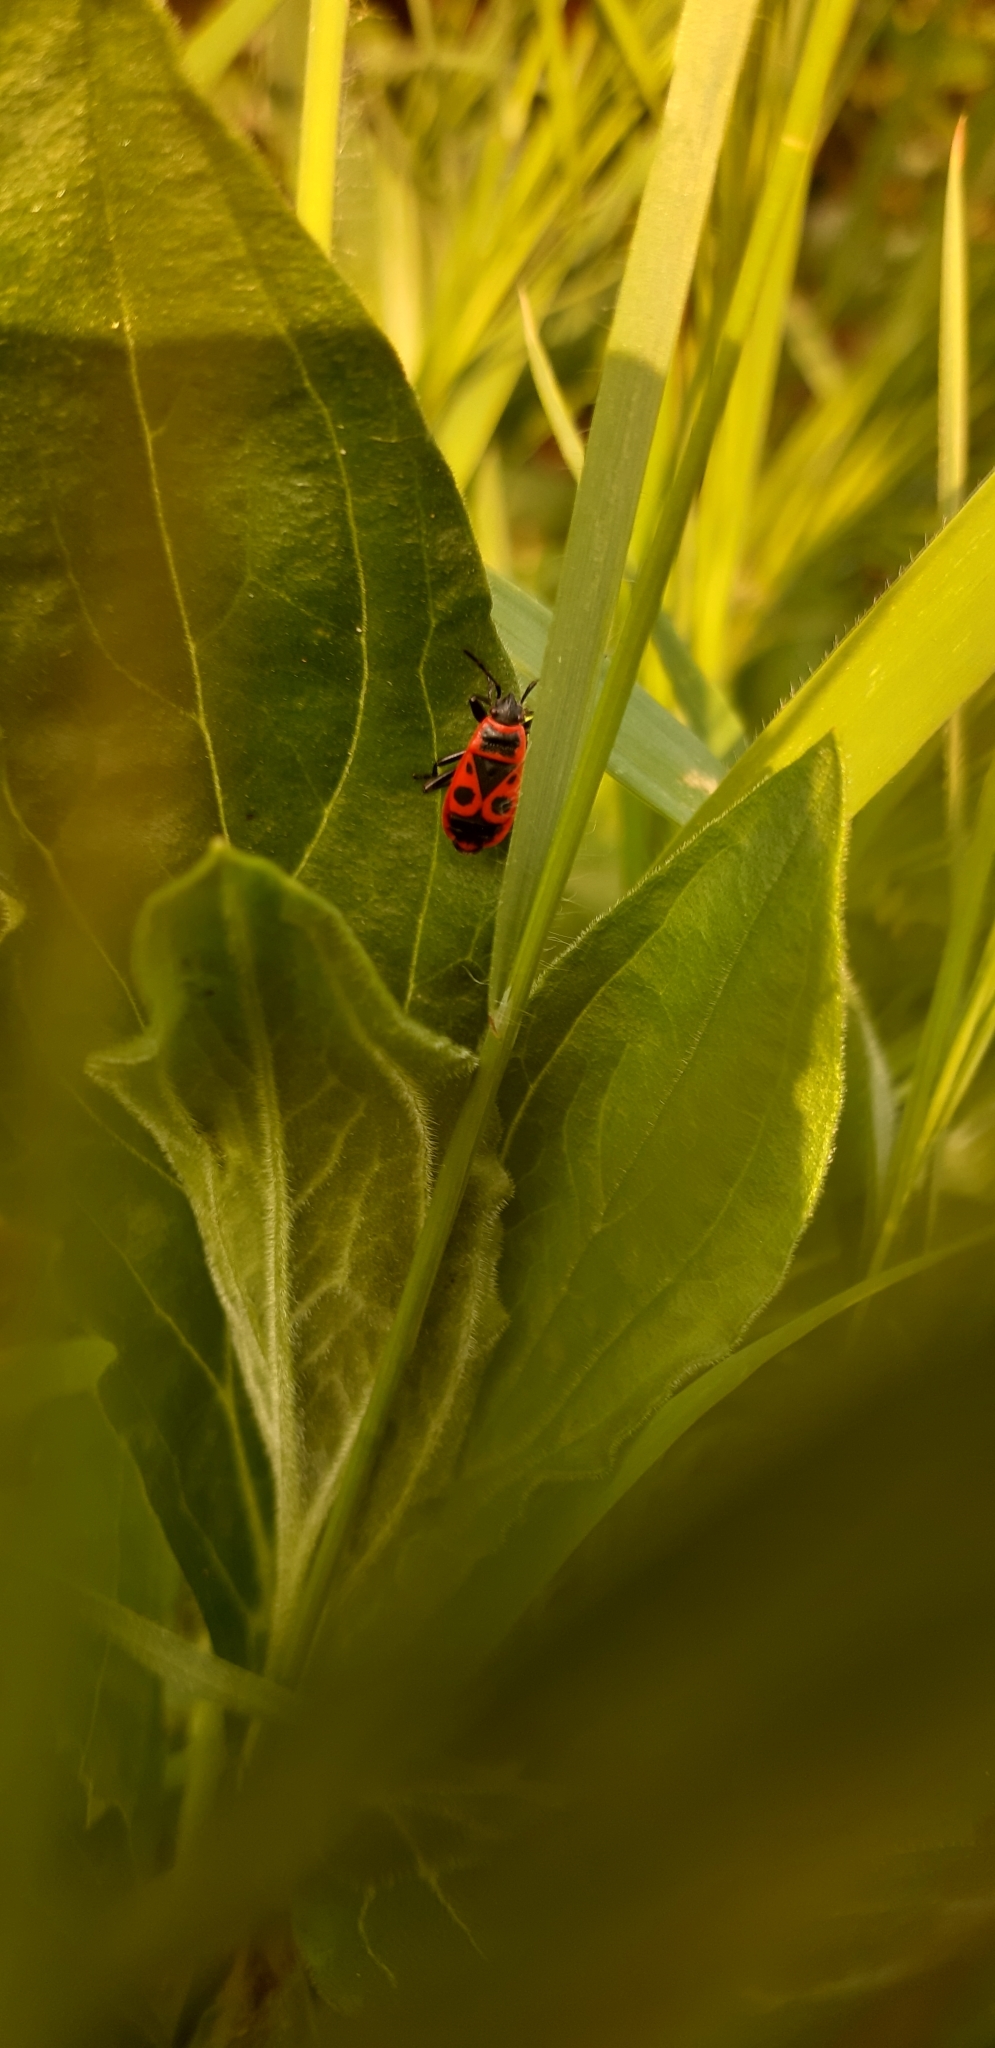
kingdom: Animalia
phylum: Arthropoda
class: Insecta
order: Hemiptera
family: Pyrrhocoridae
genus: Pyrrhocoris
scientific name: Pyrrhocoris apterus
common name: Firebug
